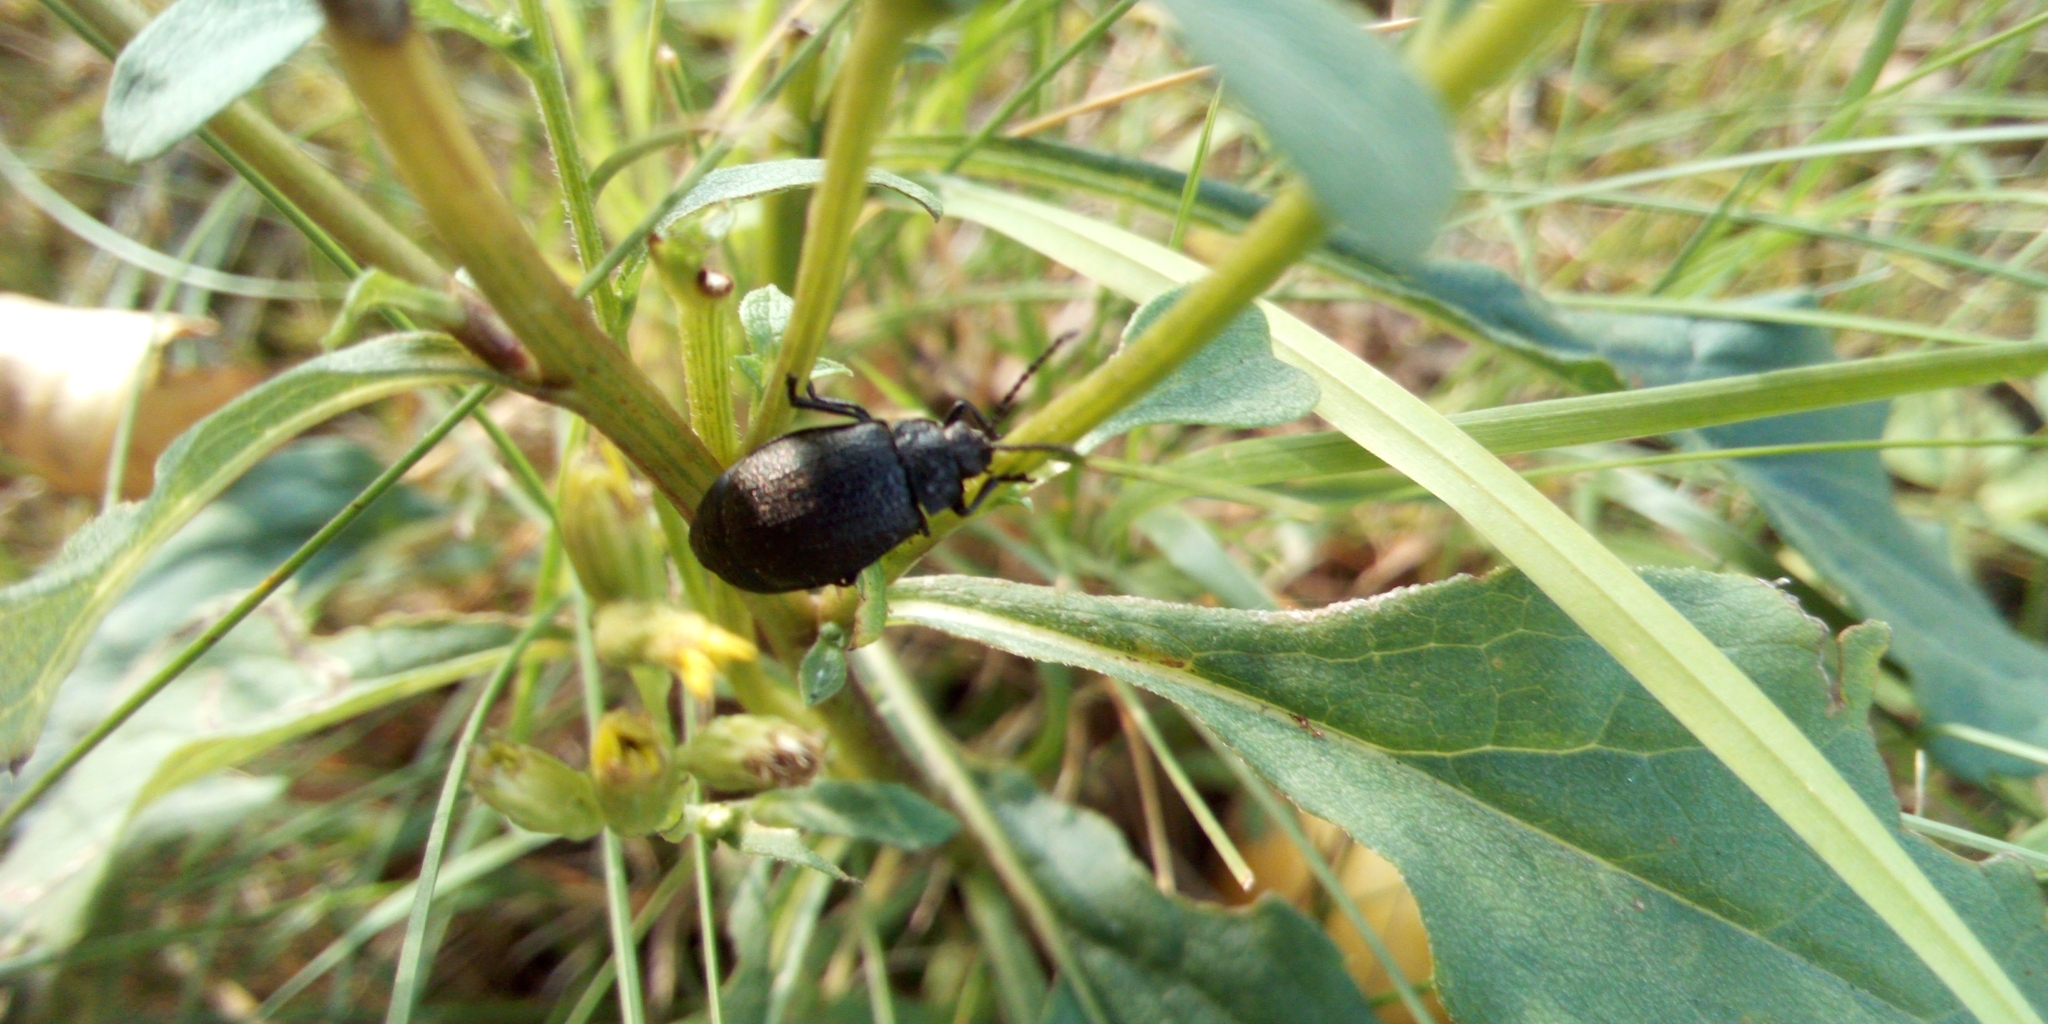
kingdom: Animalia
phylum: Arthropoda
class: Insecta
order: Coleoptera
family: Chrysomelidae
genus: Galeruca
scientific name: Galeruca tanaceti
